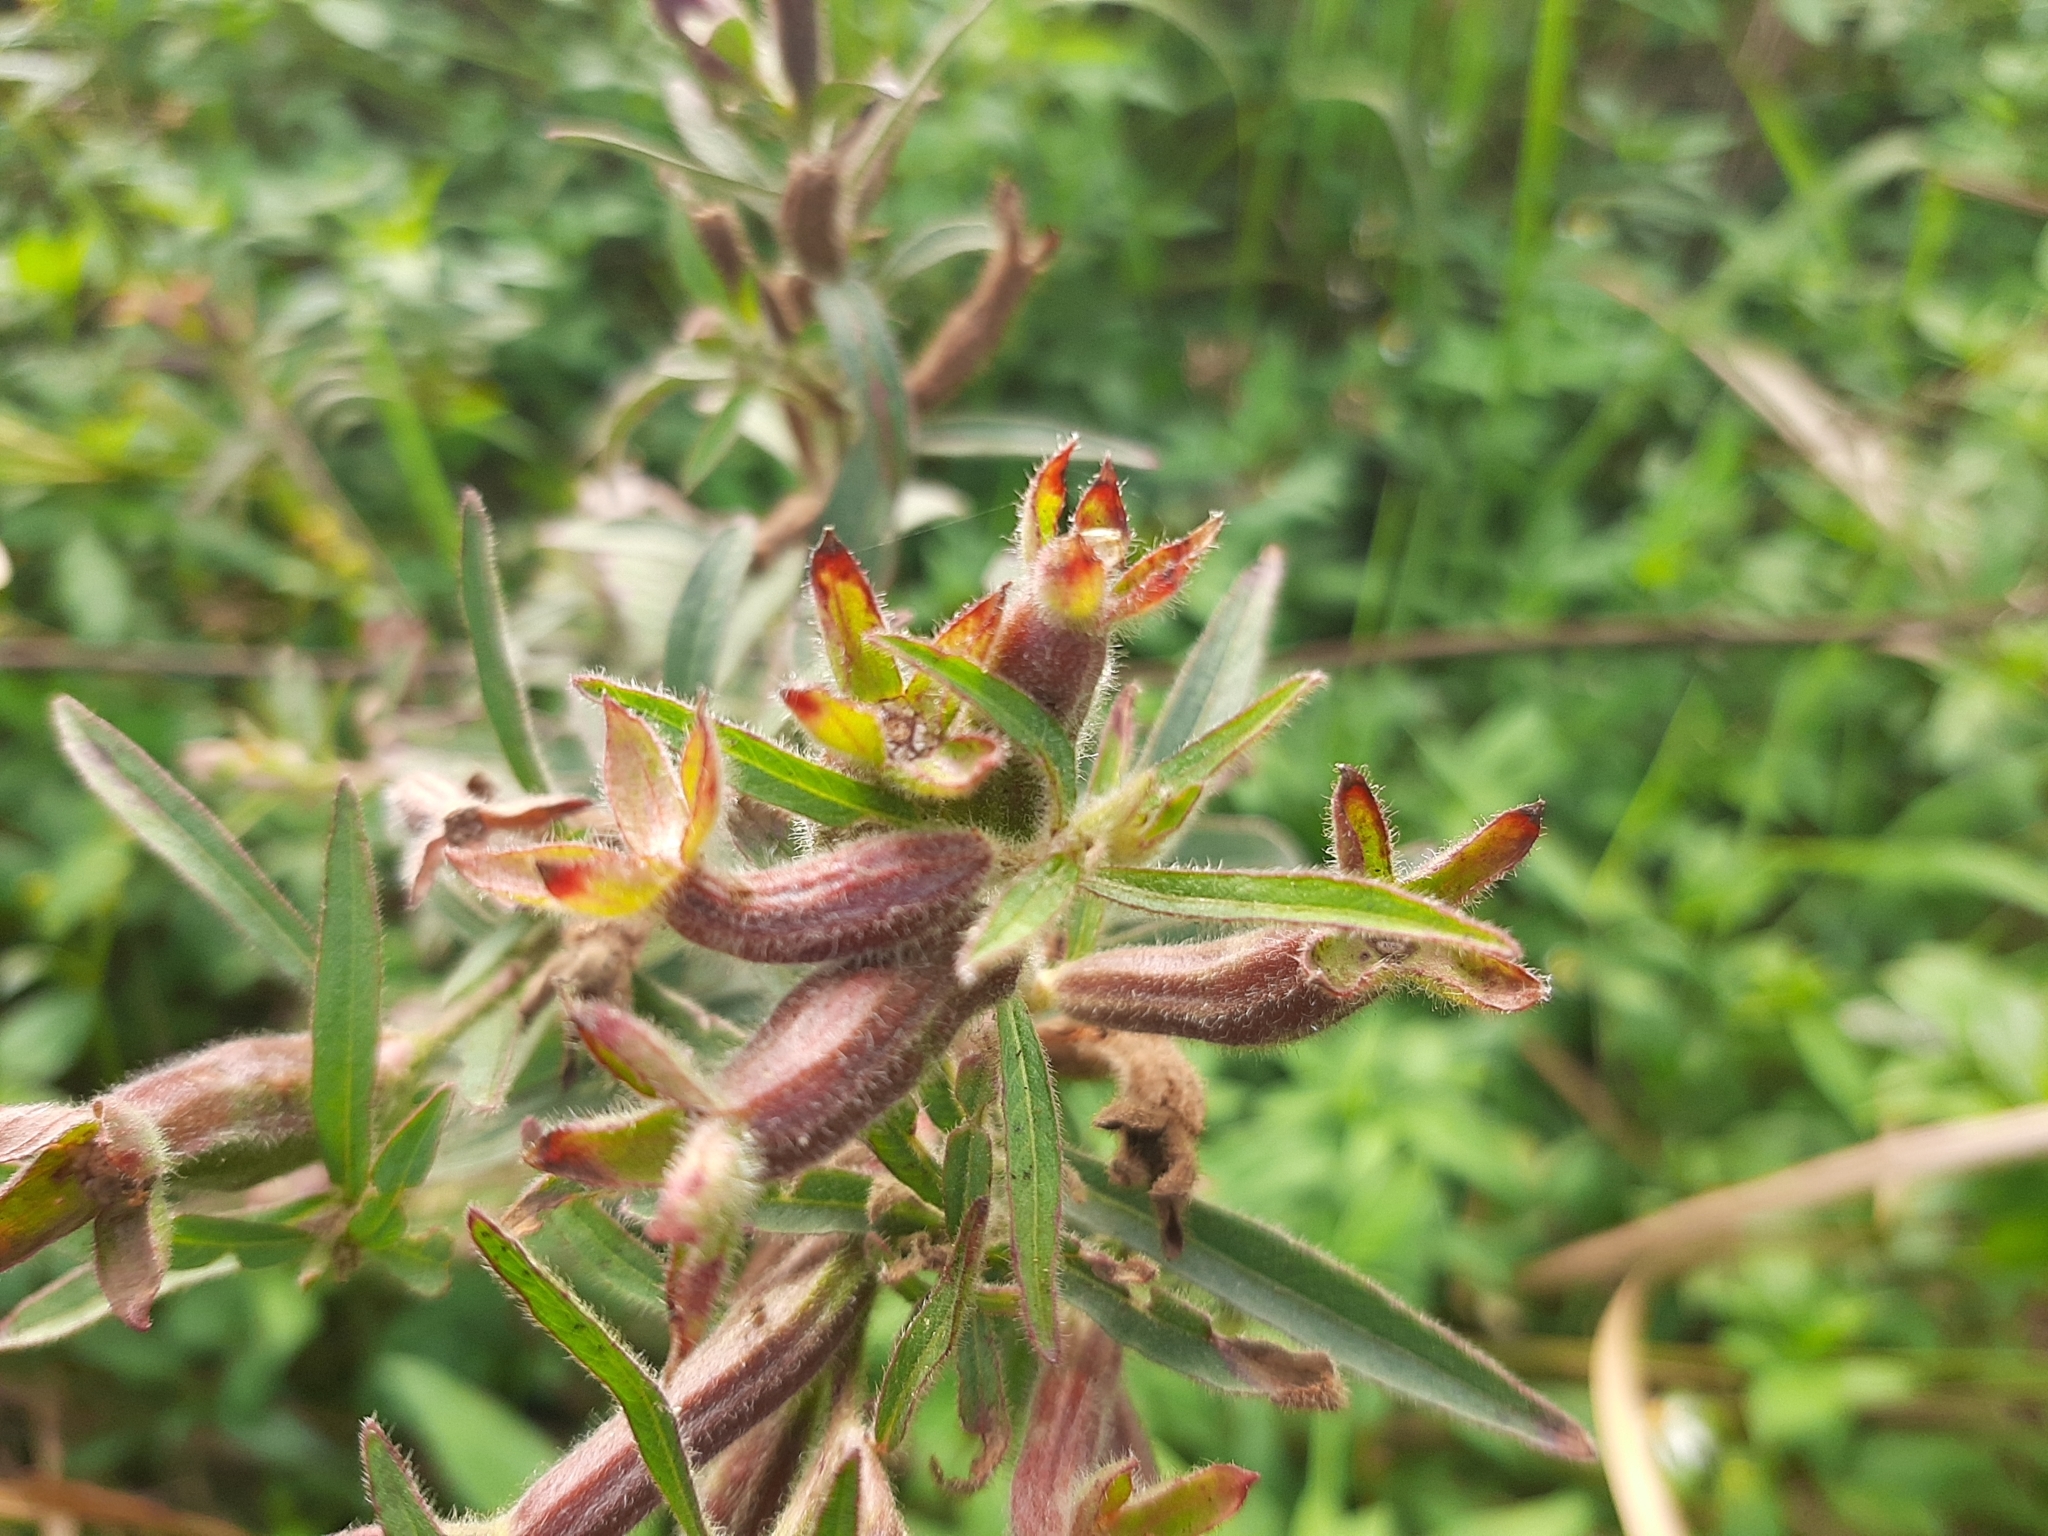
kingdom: Plantae
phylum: Tracheophyta
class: Magnoliopsida
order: Myrtales
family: Onagraceae
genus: Ludwigia
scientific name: Ludwigia octovalvis
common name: Water-primrose
